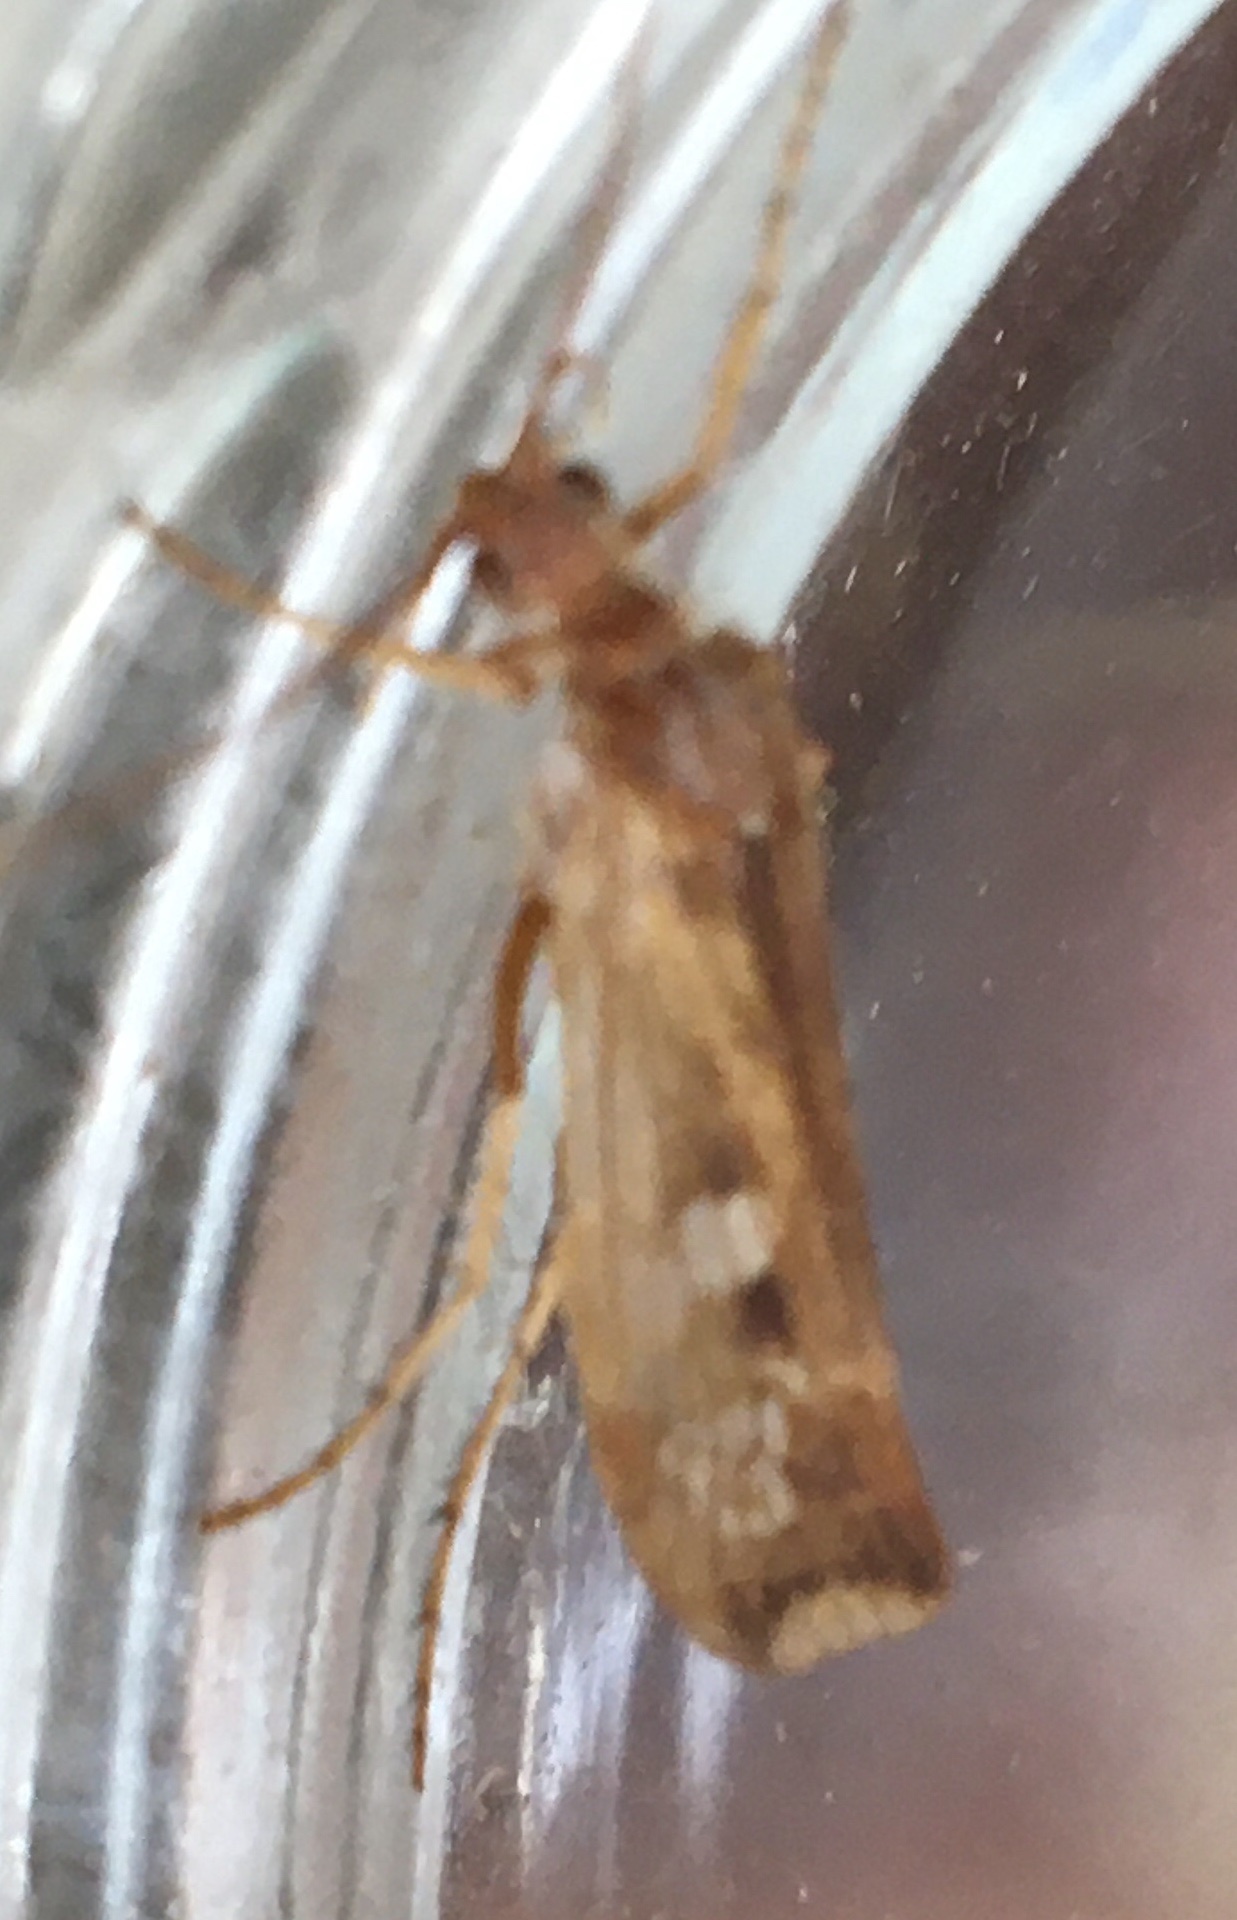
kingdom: Animalia
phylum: Arthropoda
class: Insecta
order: Trichoptera
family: Limnephilidae
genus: Limnephilus
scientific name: Limnephilus lunatus
